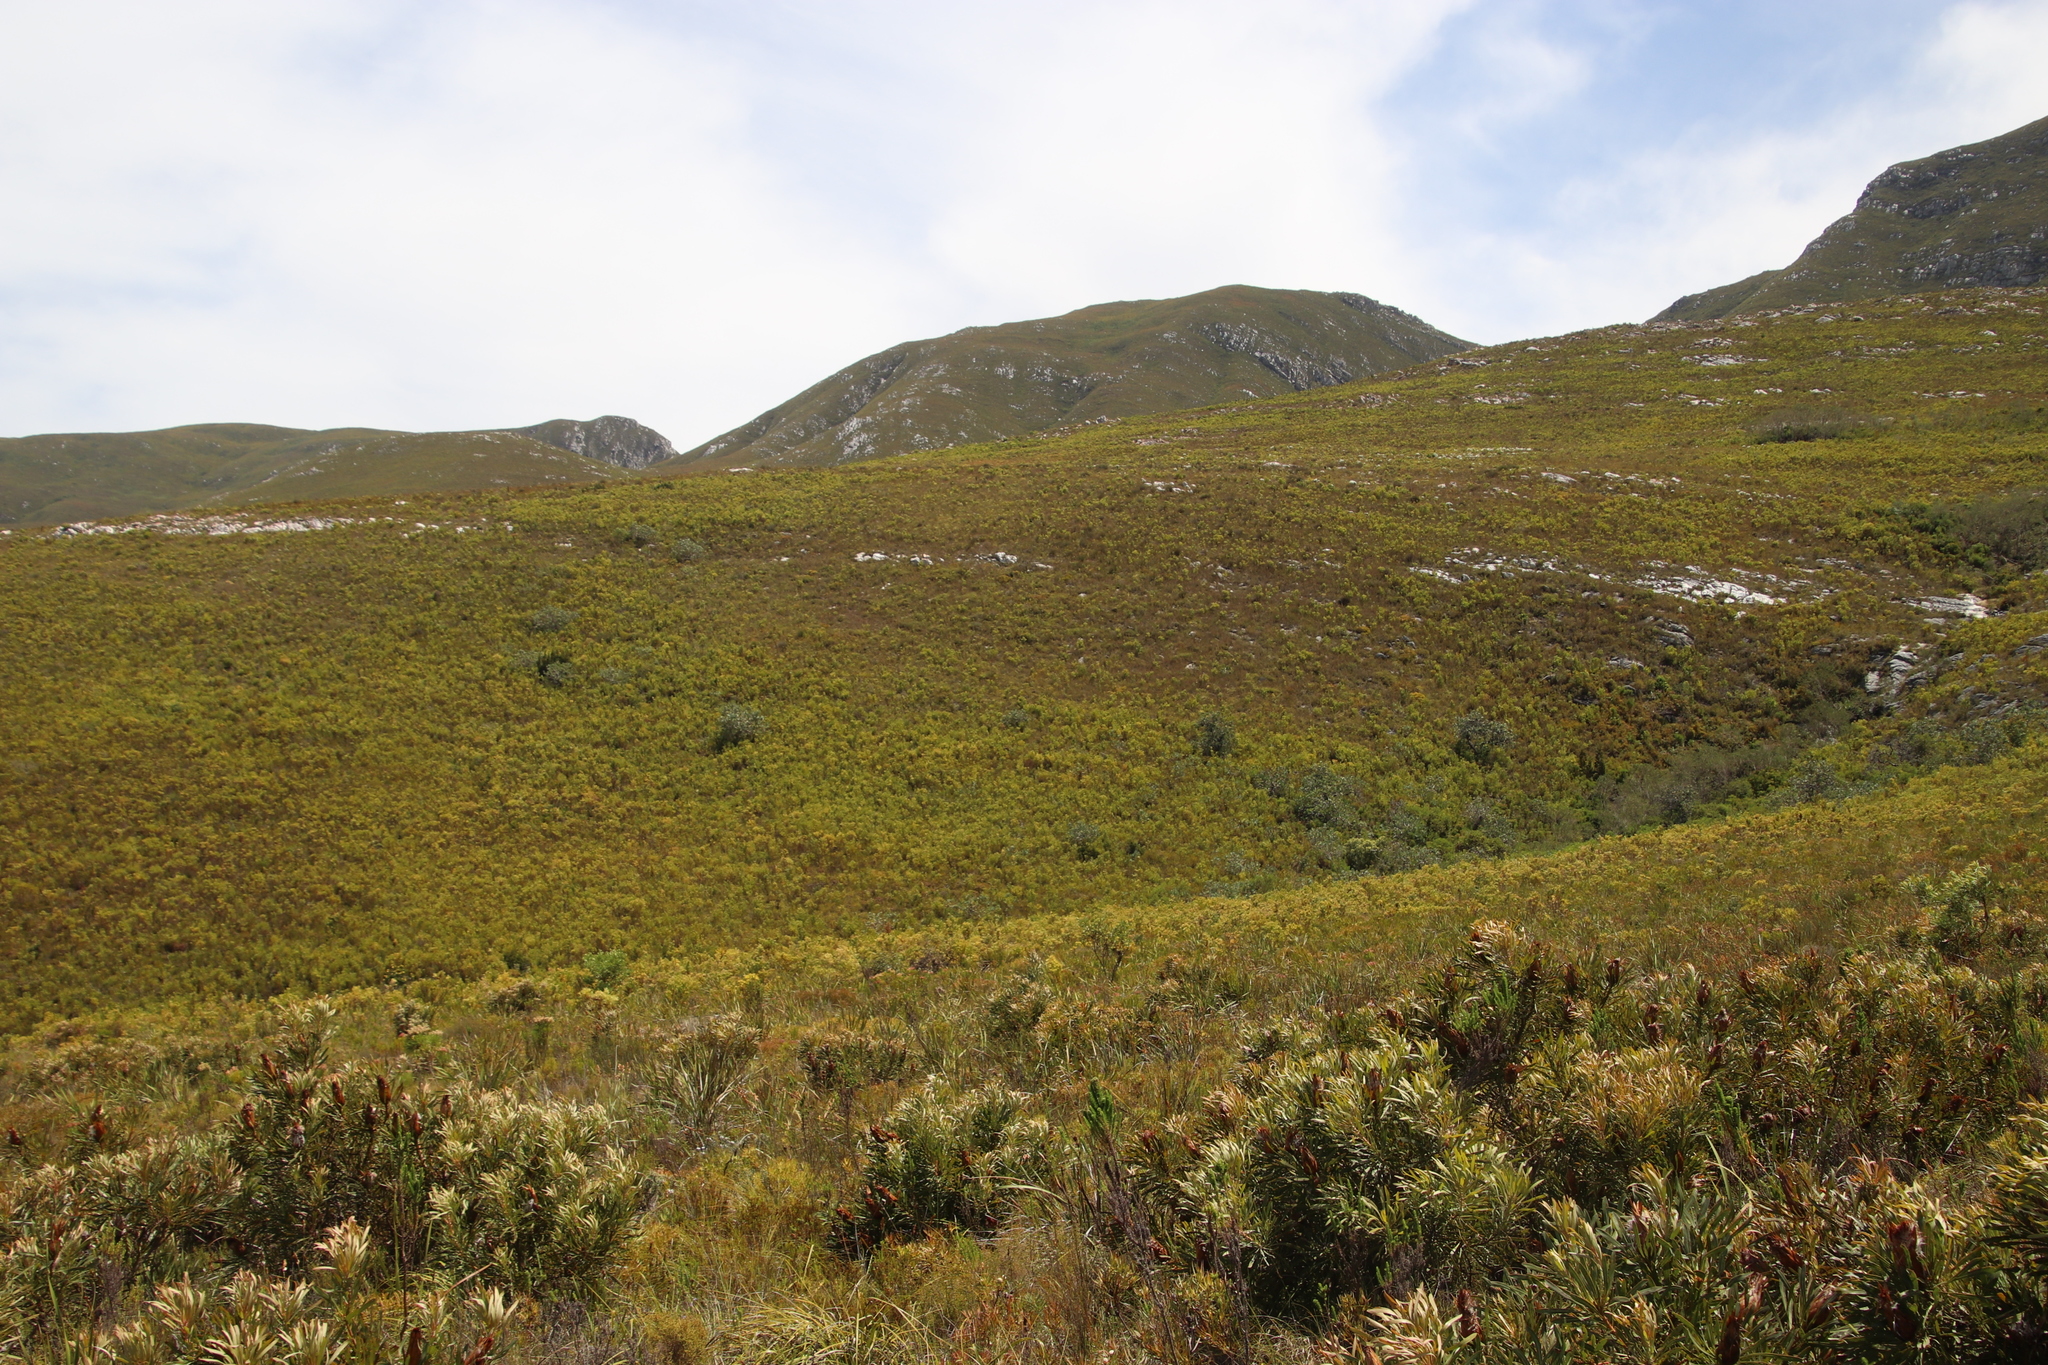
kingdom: Plantae
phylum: Tracheophyta
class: Magnoliopsida
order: Proteales
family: Proteaceae
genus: Protea
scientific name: Protea nitida
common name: Tree protea
